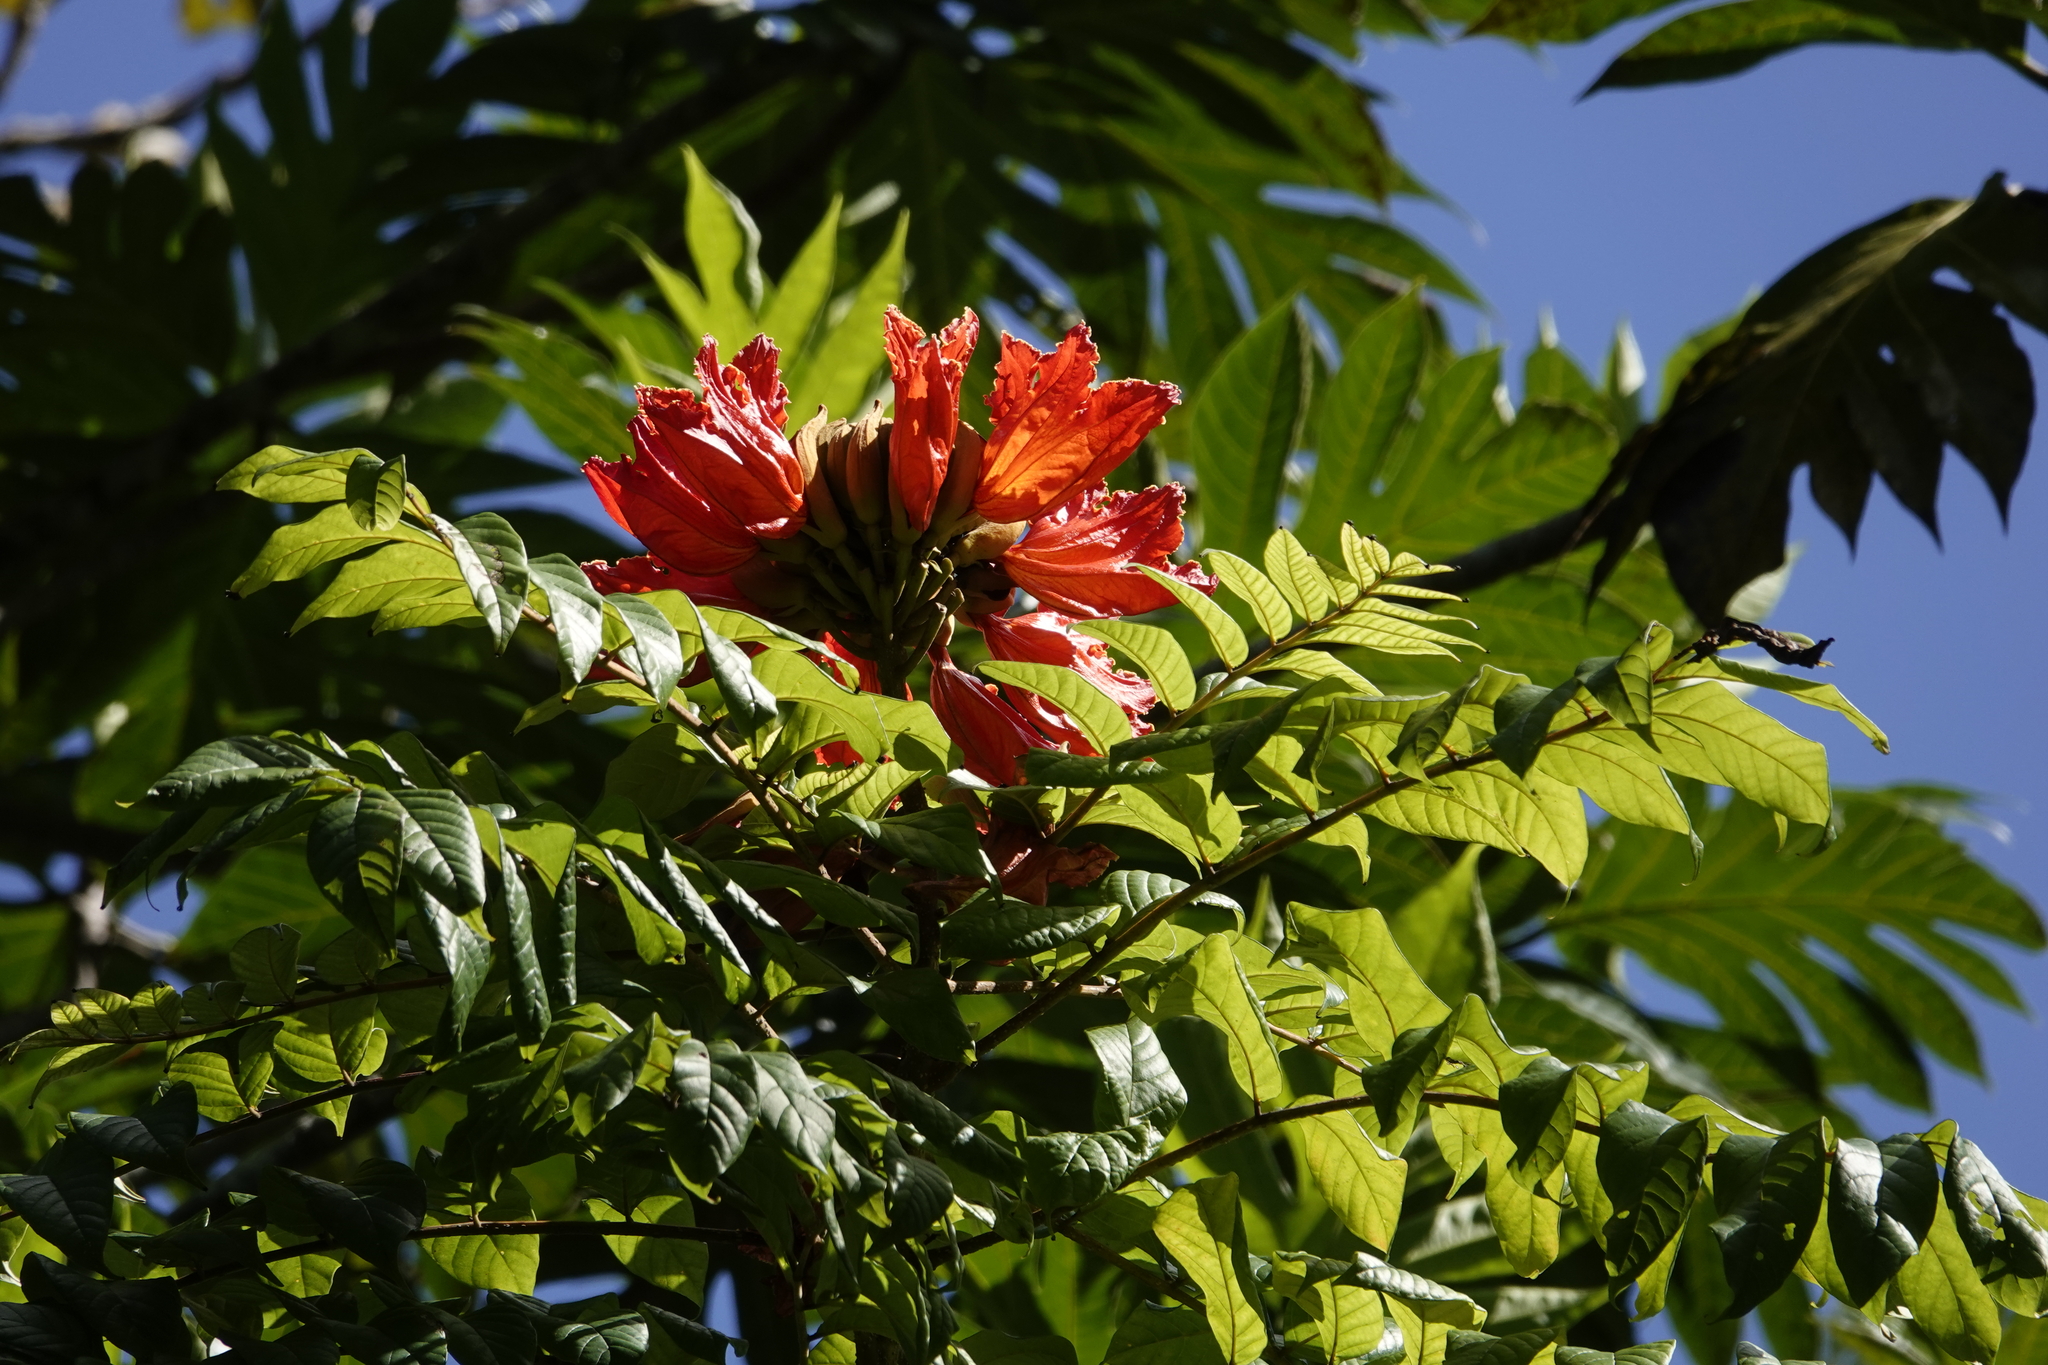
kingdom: Plantae
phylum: Tracheophyta
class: Magnoliopsida
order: Lamiales
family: Bignoniaceae
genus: Spathodea
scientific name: Spathodea campanulata
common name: African tuliptree
